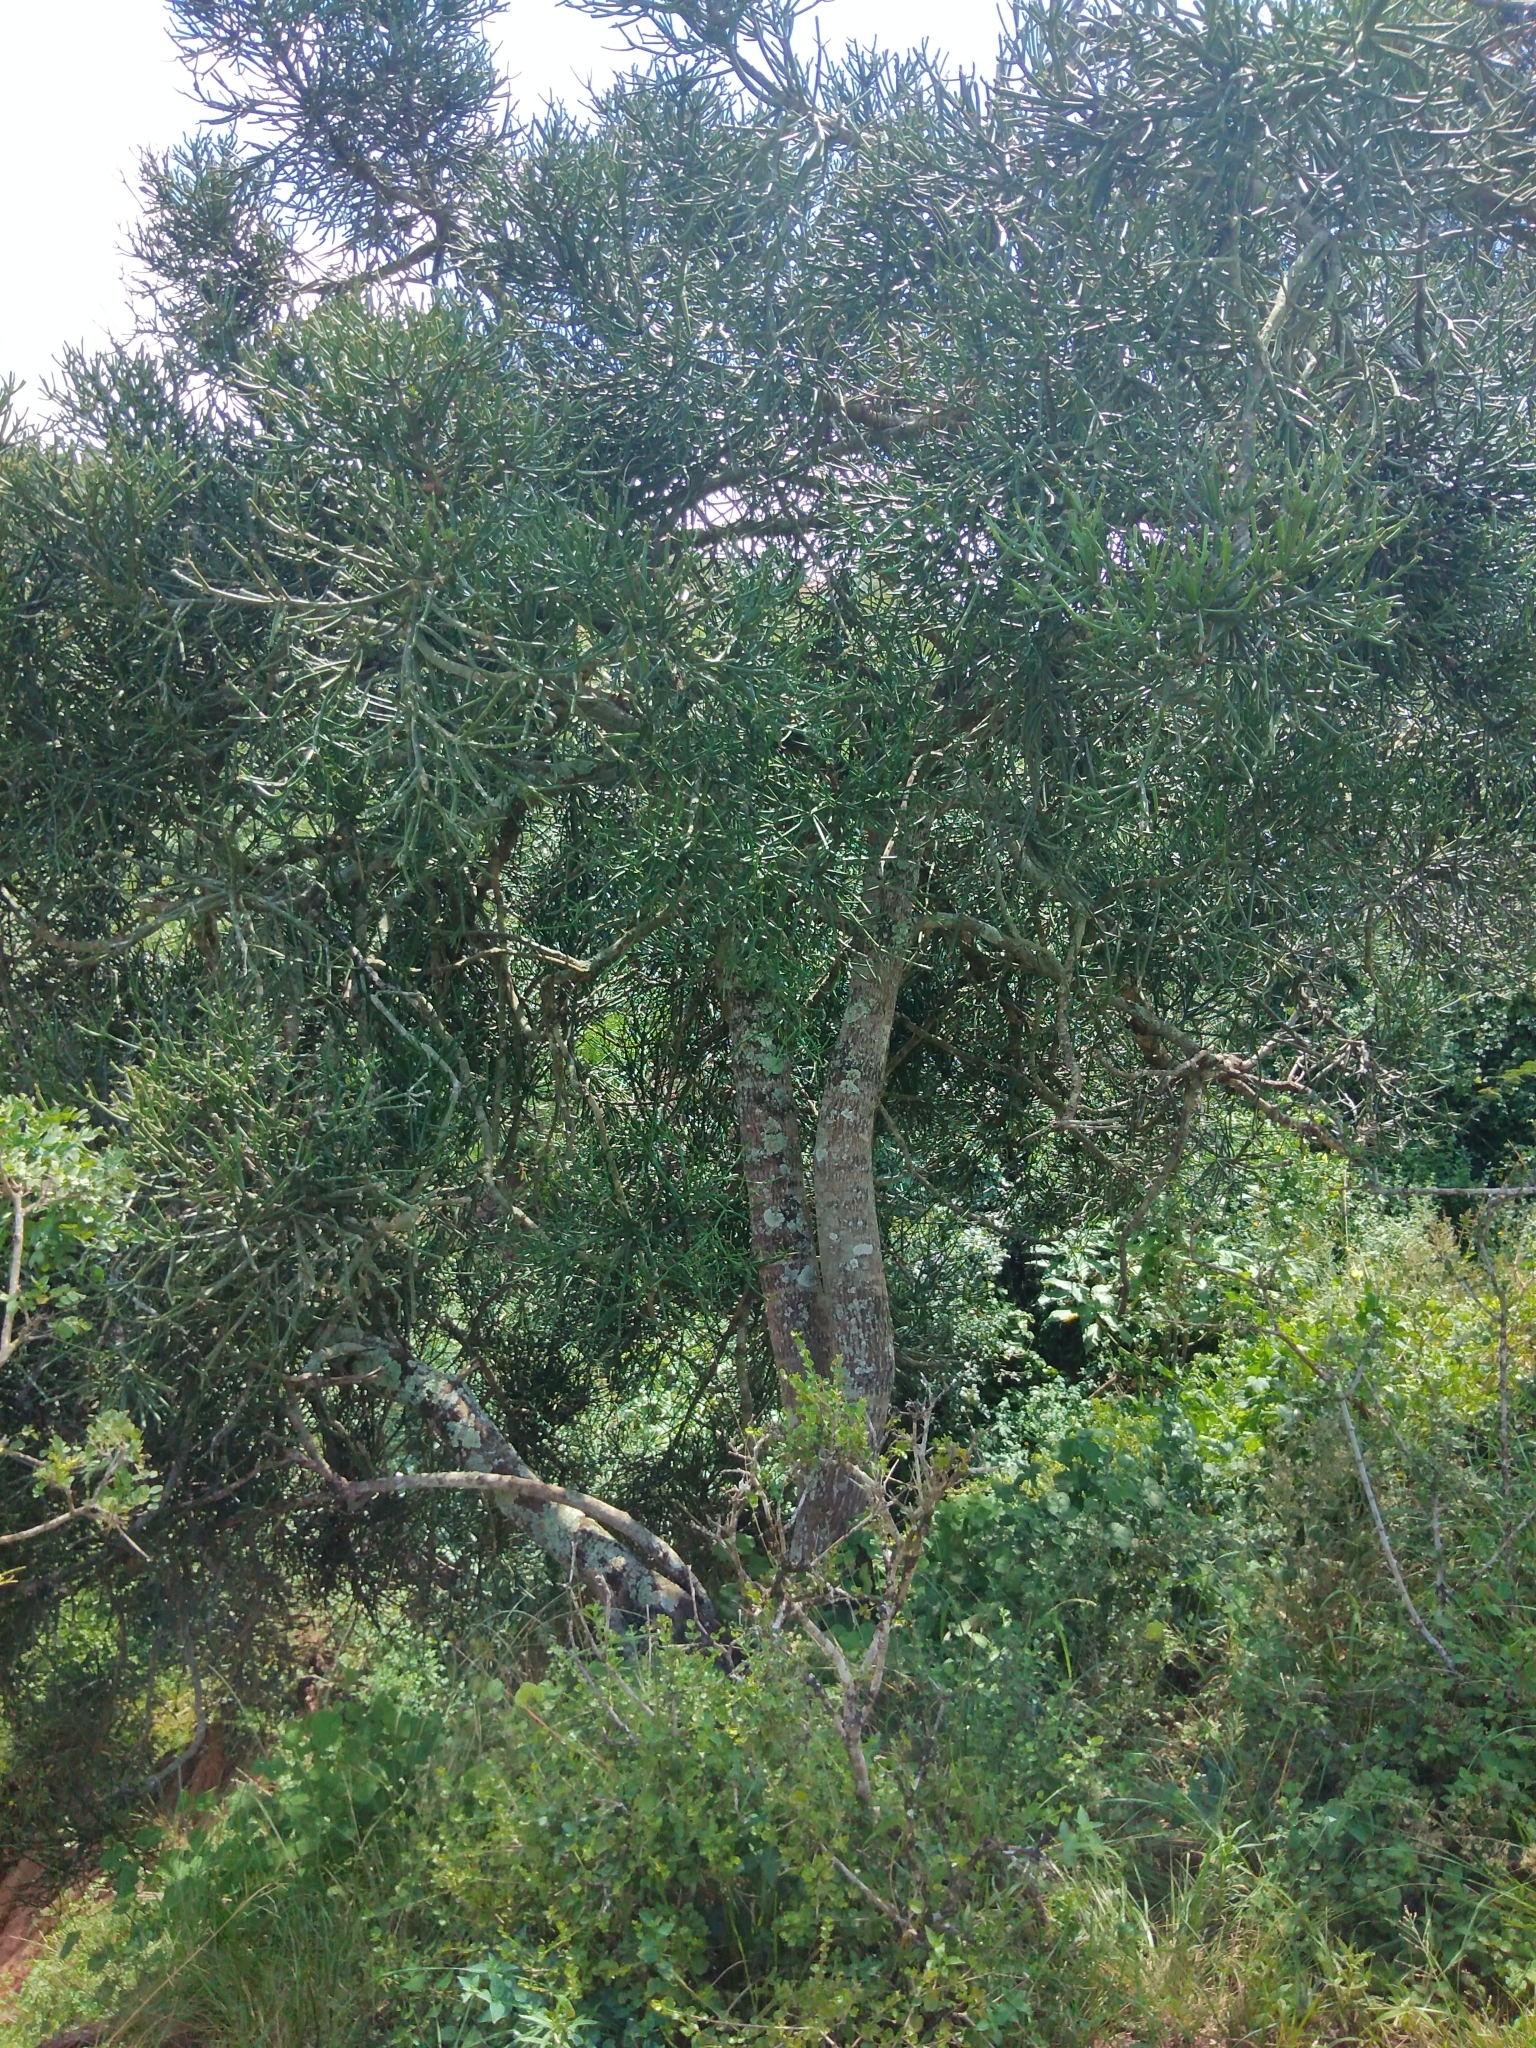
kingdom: Plantae
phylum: Tracheophyta
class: Magnoliopsida
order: Malpighiales
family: Euphorbiaceae
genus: Euphorbia
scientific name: Euphorbia tirucalli
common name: Indiantree spurge
